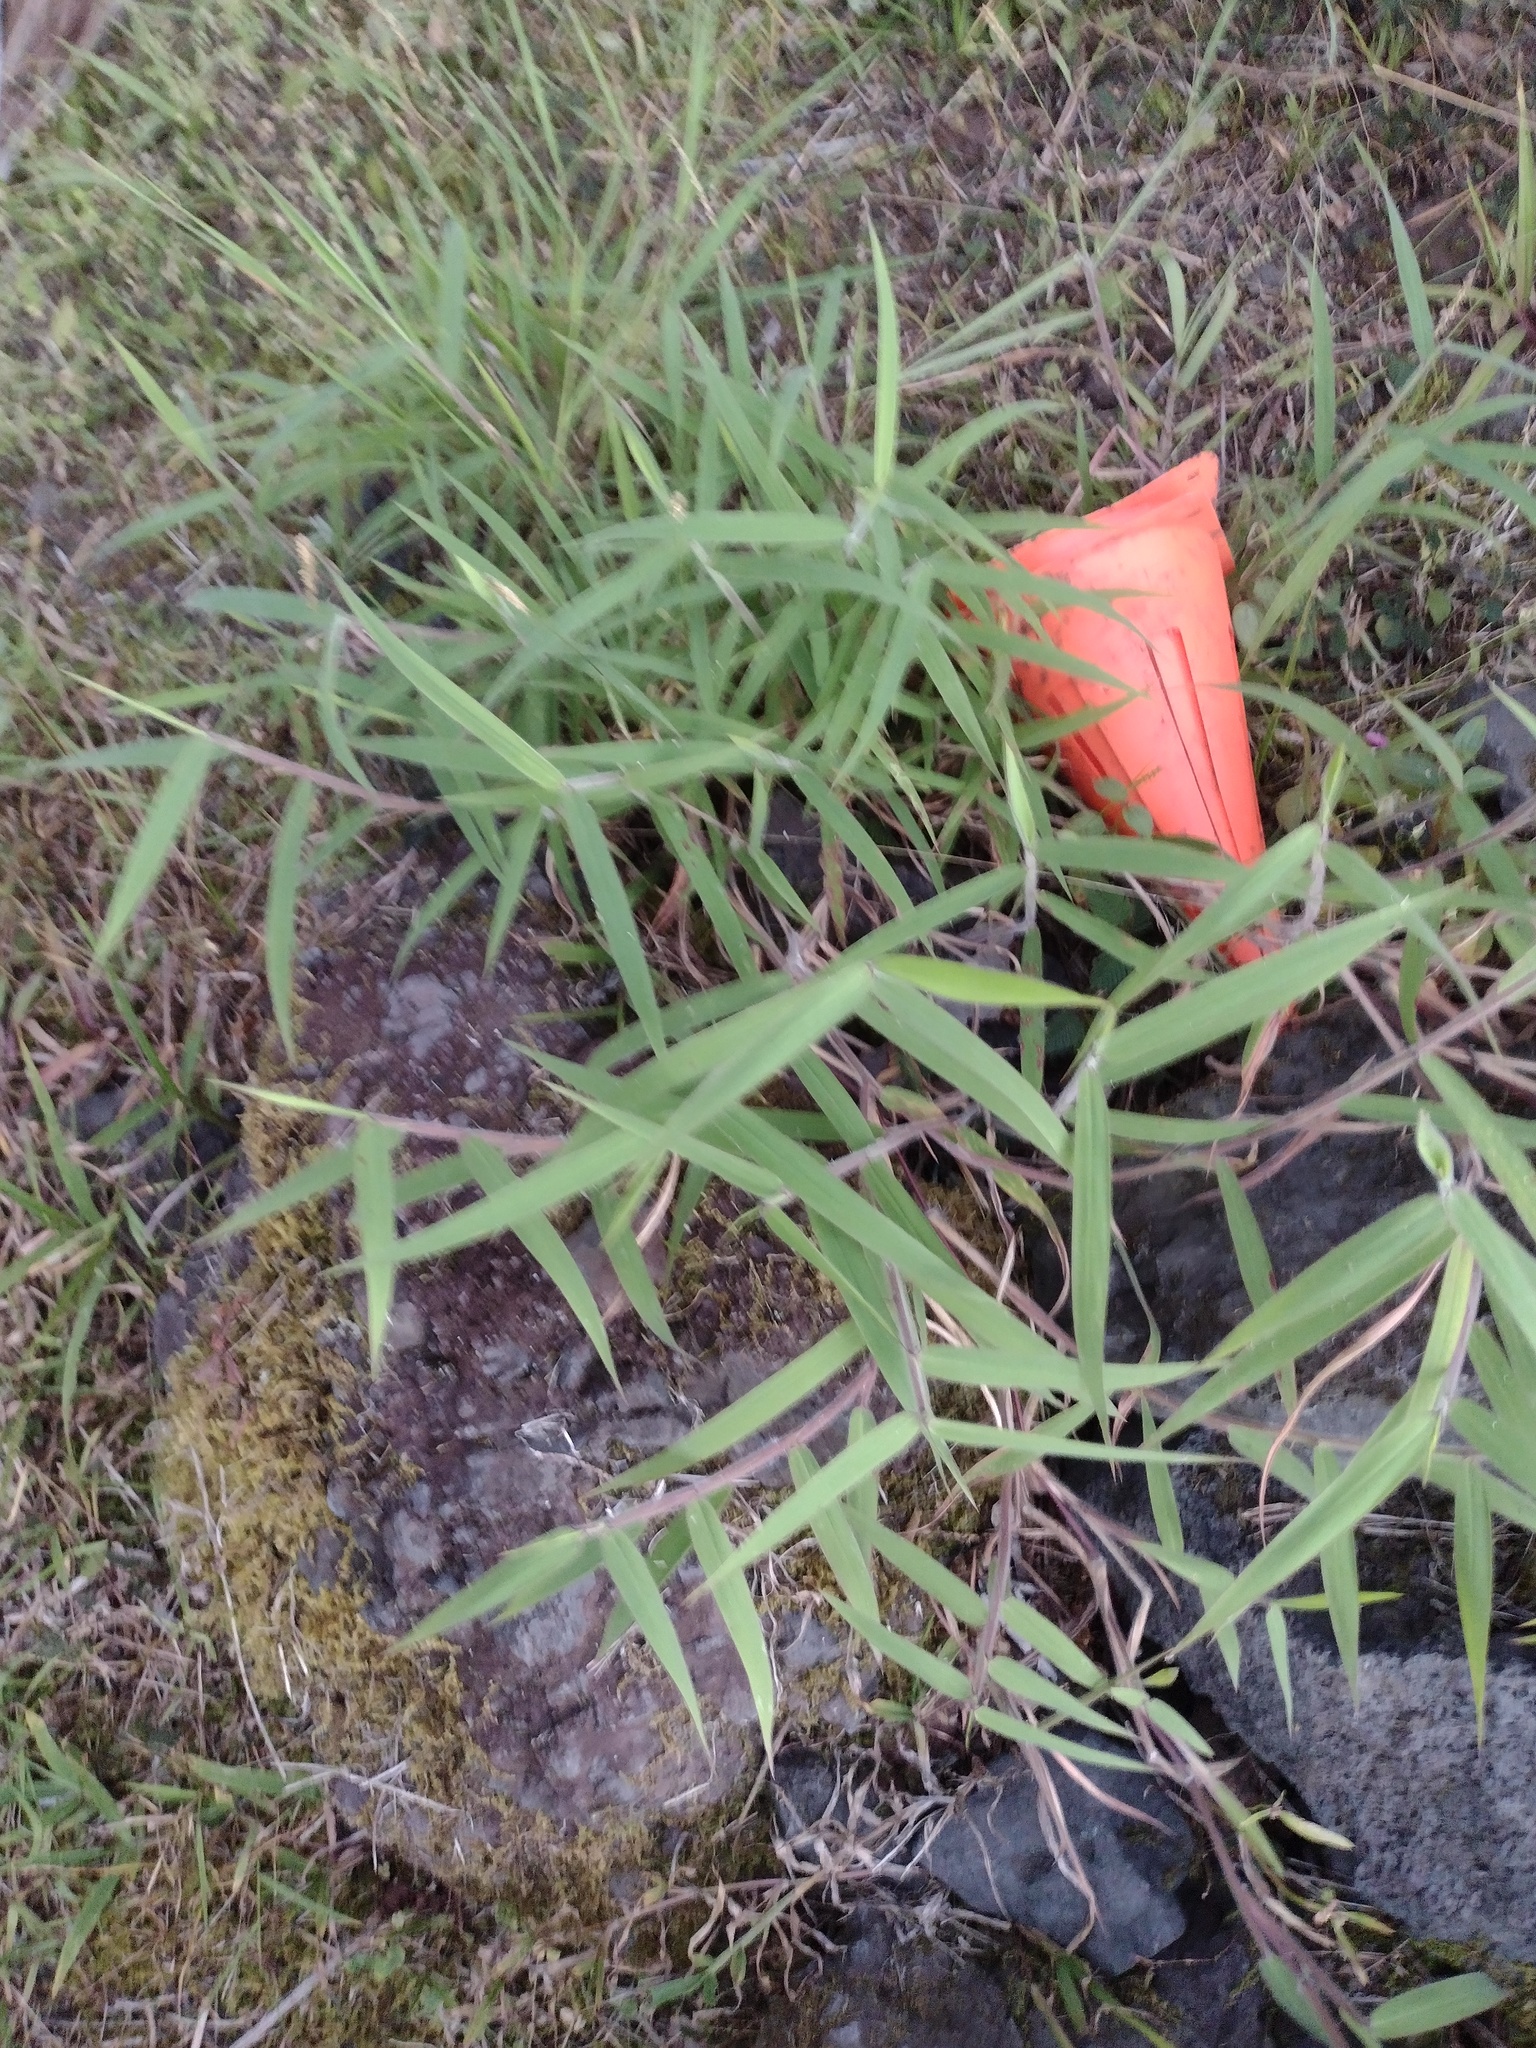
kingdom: Plantae
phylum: Tracheophyta
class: Liliopsida
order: Poales
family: Poaceae
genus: Melinis
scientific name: Melinis minutiflora
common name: Molassesgrass
